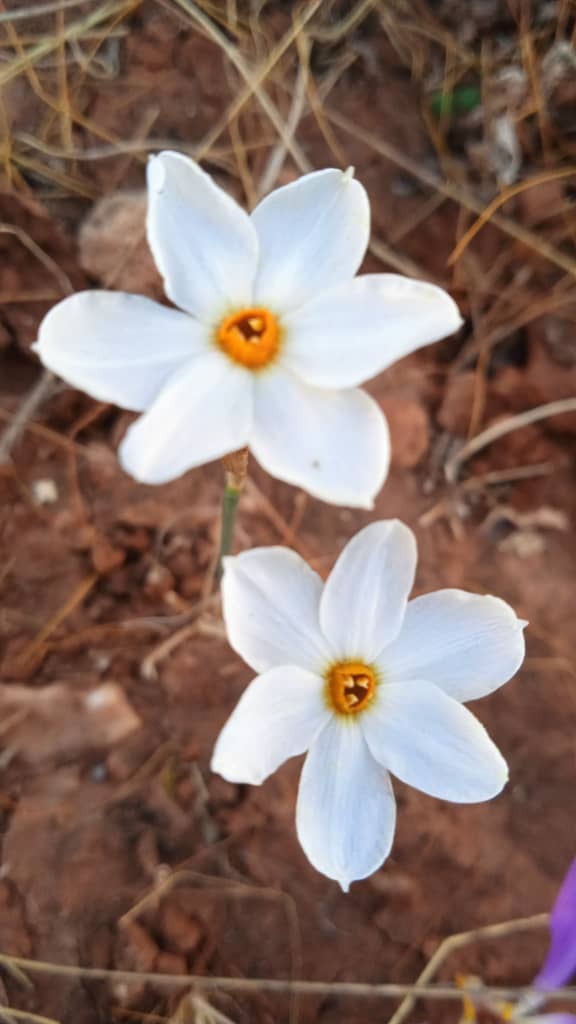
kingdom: Plantae
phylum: Tracheophyta
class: Liliopsida
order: Asparagales
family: Amaryllidaceae
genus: Narcissus
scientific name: Narcissus deficiens
